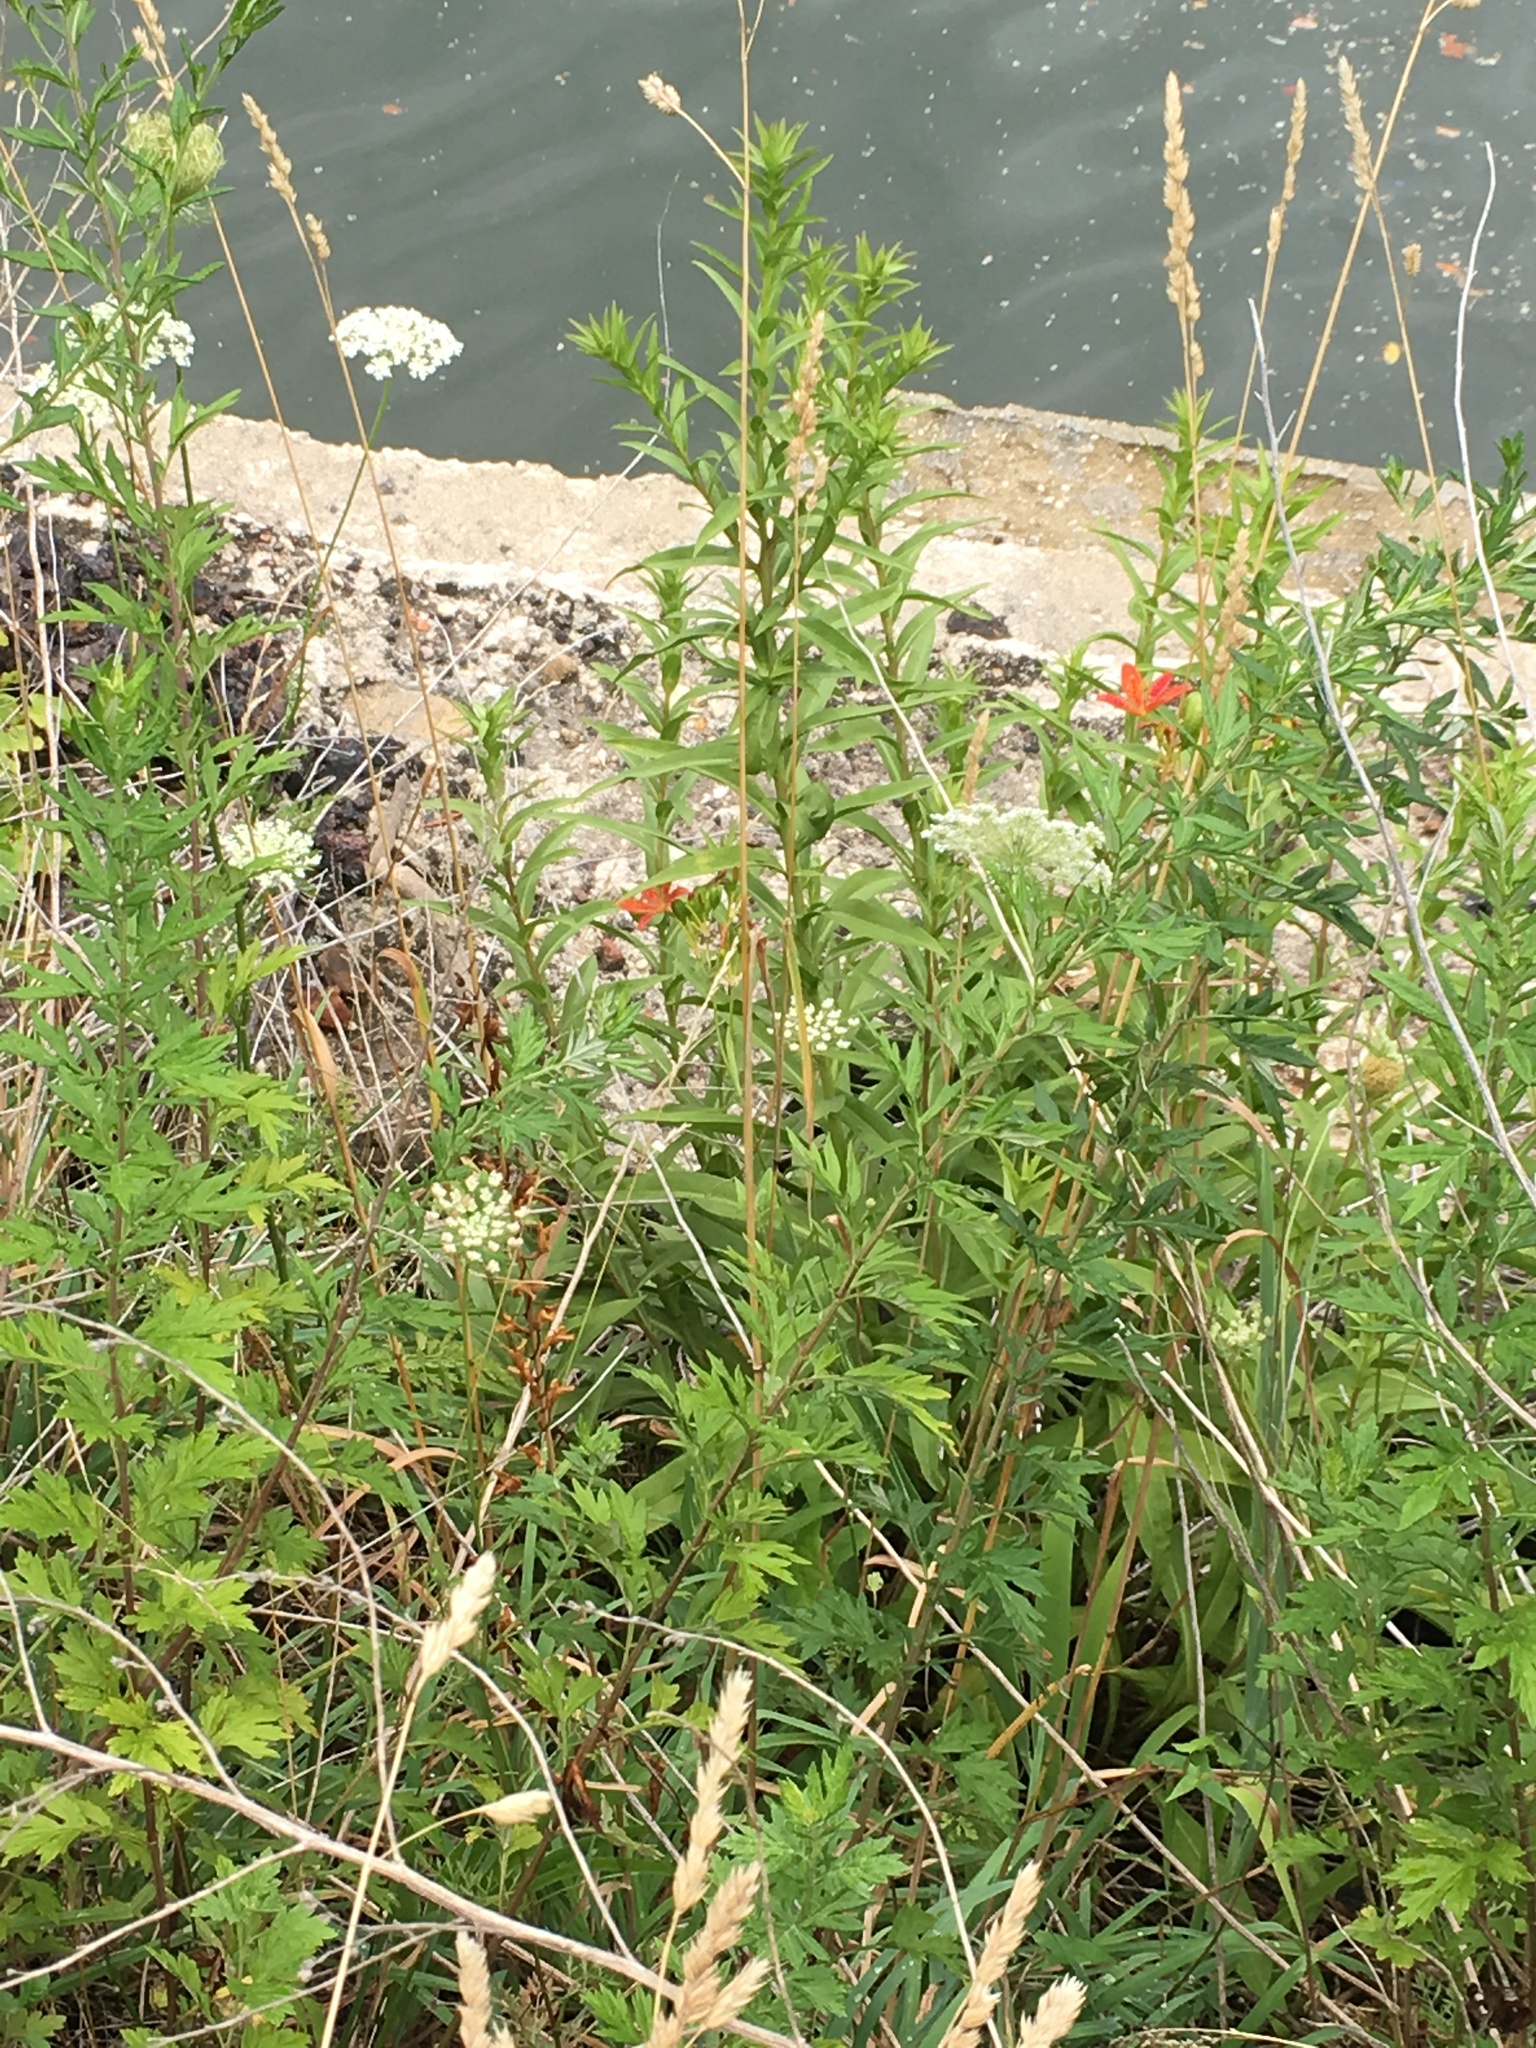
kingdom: Plantae
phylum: Tracheophyta
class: Liliopsida
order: Asparagales
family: Iridaceae
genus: Iris
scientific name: Iris domestica
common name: Belamcanda
